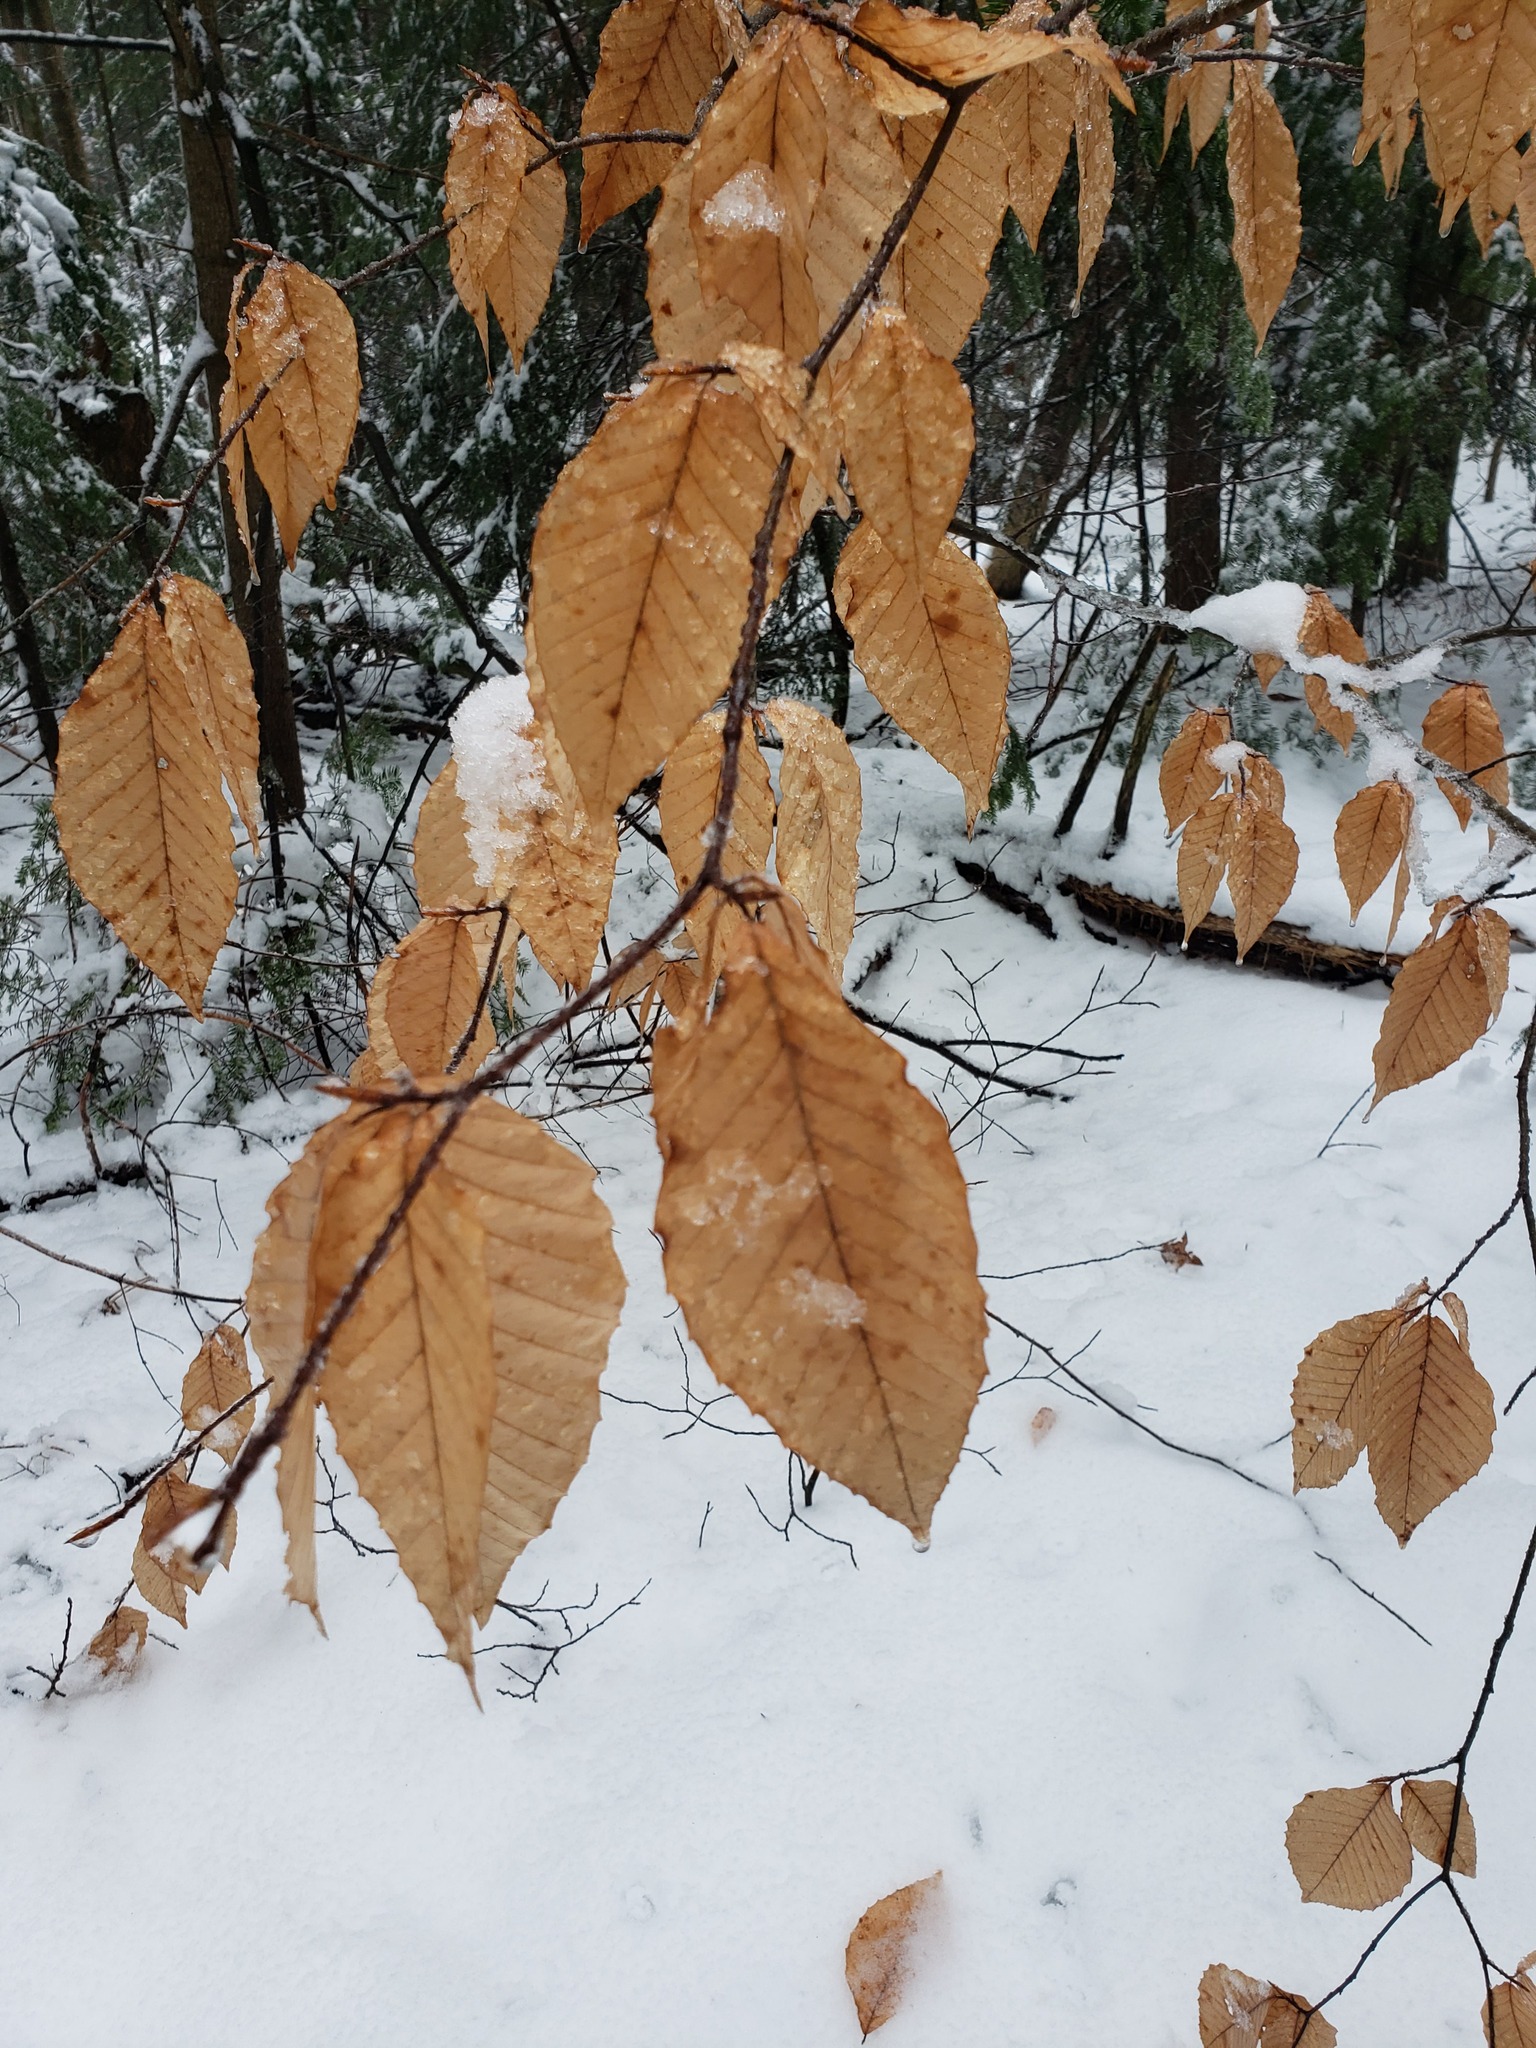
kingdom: Plantae
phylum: Tracheophyta
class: Magnoliopsida
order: Fagales
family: Fagaceae
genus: Fagus
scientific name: Fagus grandifolia
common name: American beech
